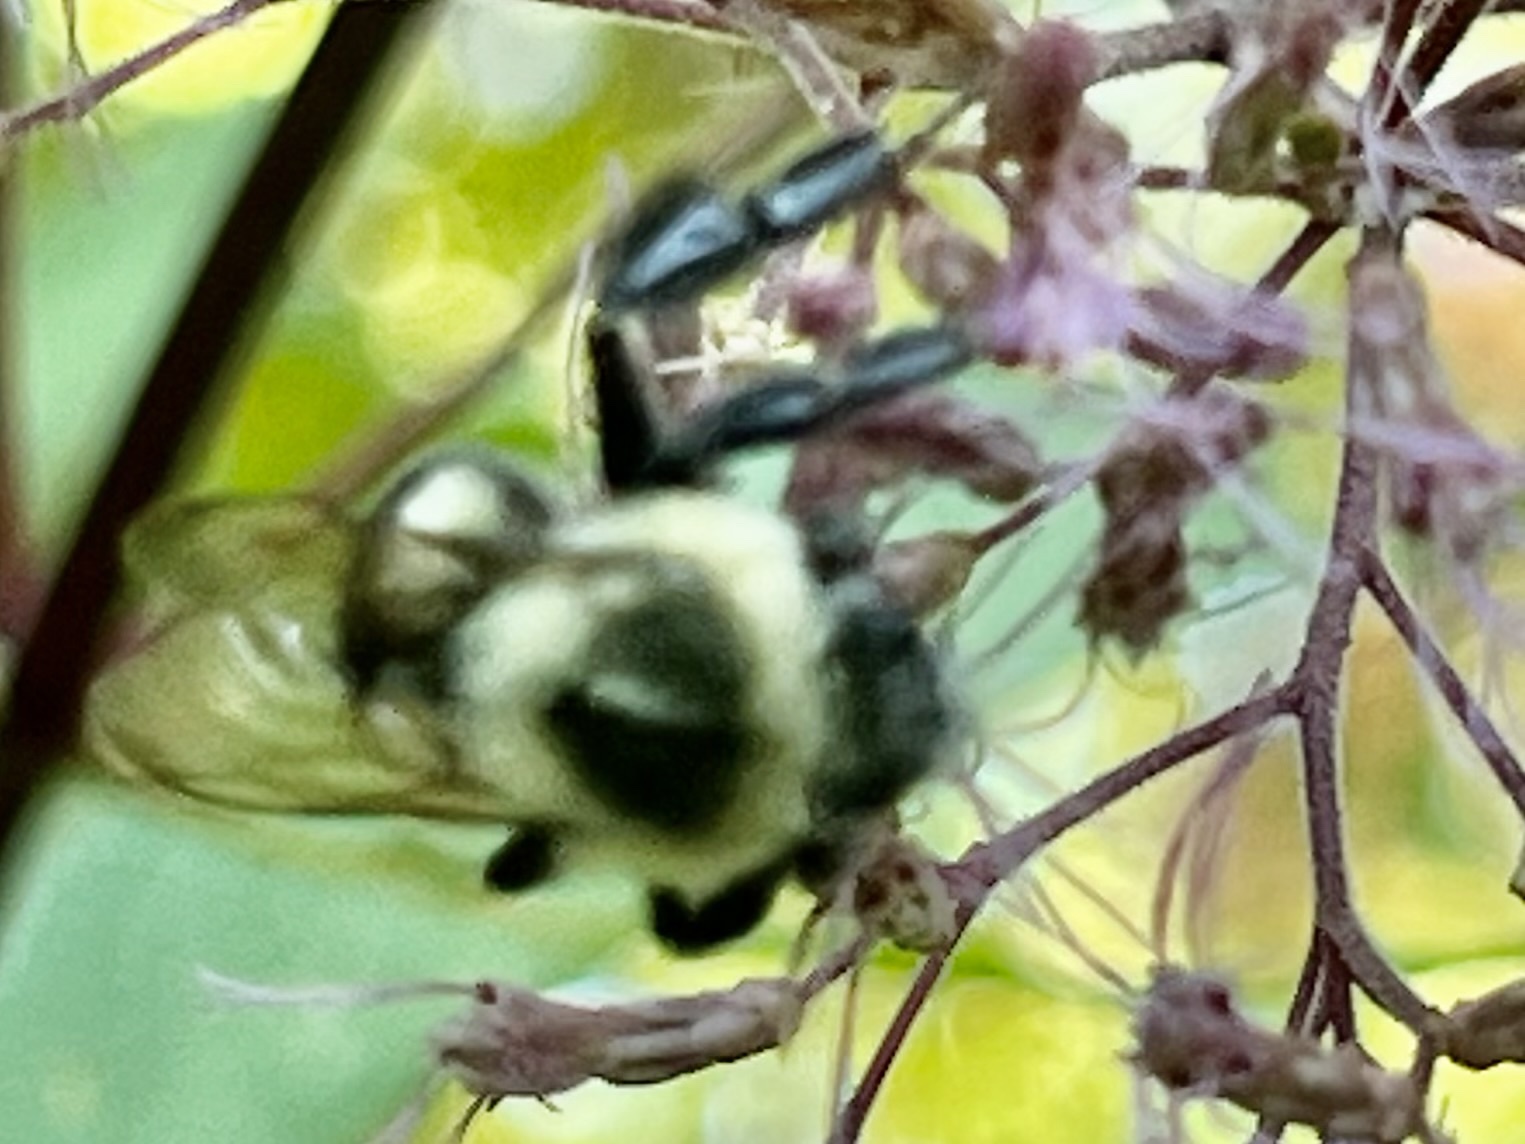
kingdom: Animalia
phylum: Arthropoda
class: Insecta
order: Hymenoptera
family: Apidae
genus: Bombus
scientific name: Bombus impatiens
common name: Common eastern bumble bee
